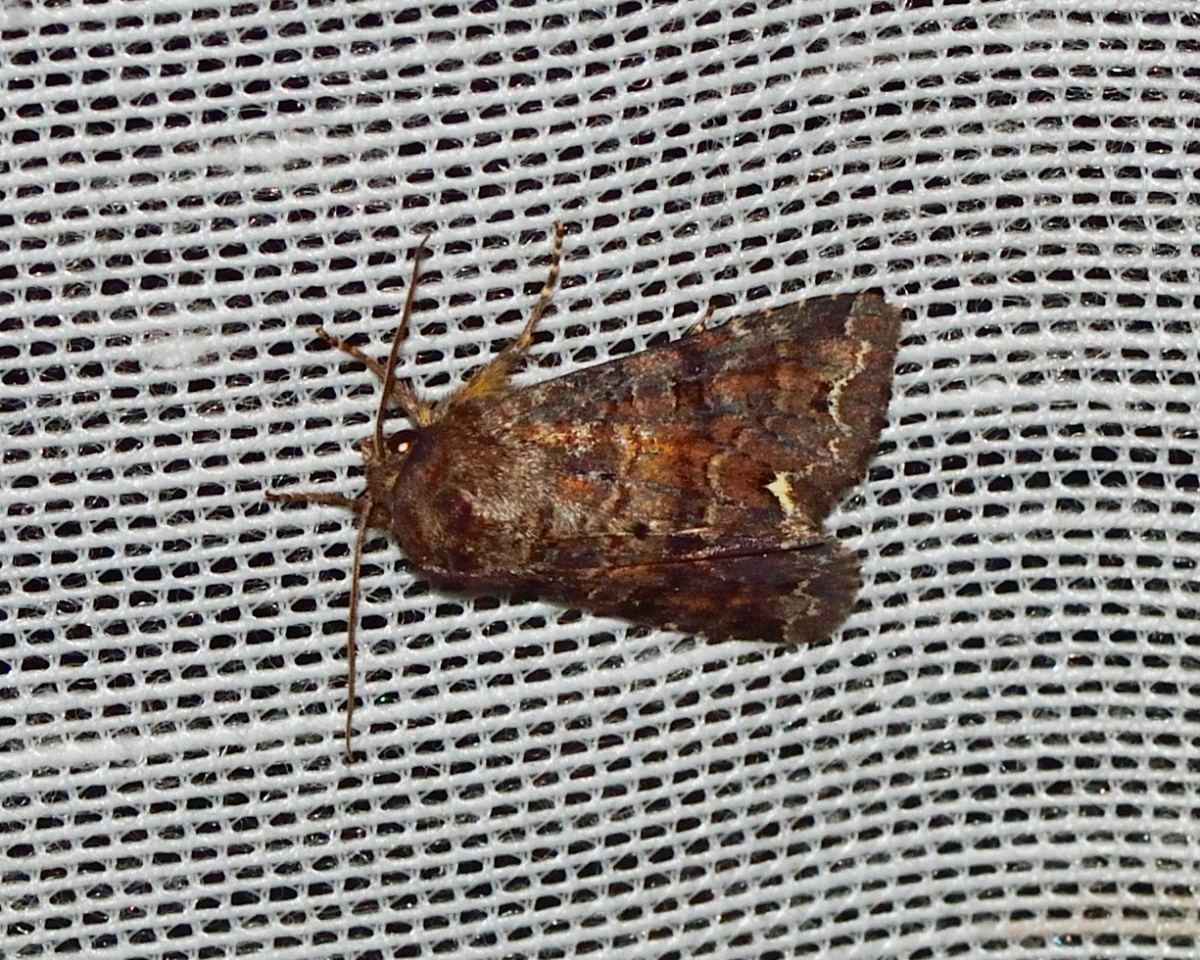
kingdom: Animalia
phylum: Arthropoda
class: Insecta
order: Lepidoptera
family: Noctuidae
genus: Ceramica
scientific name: Ceramica pisi
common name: Broom moth
